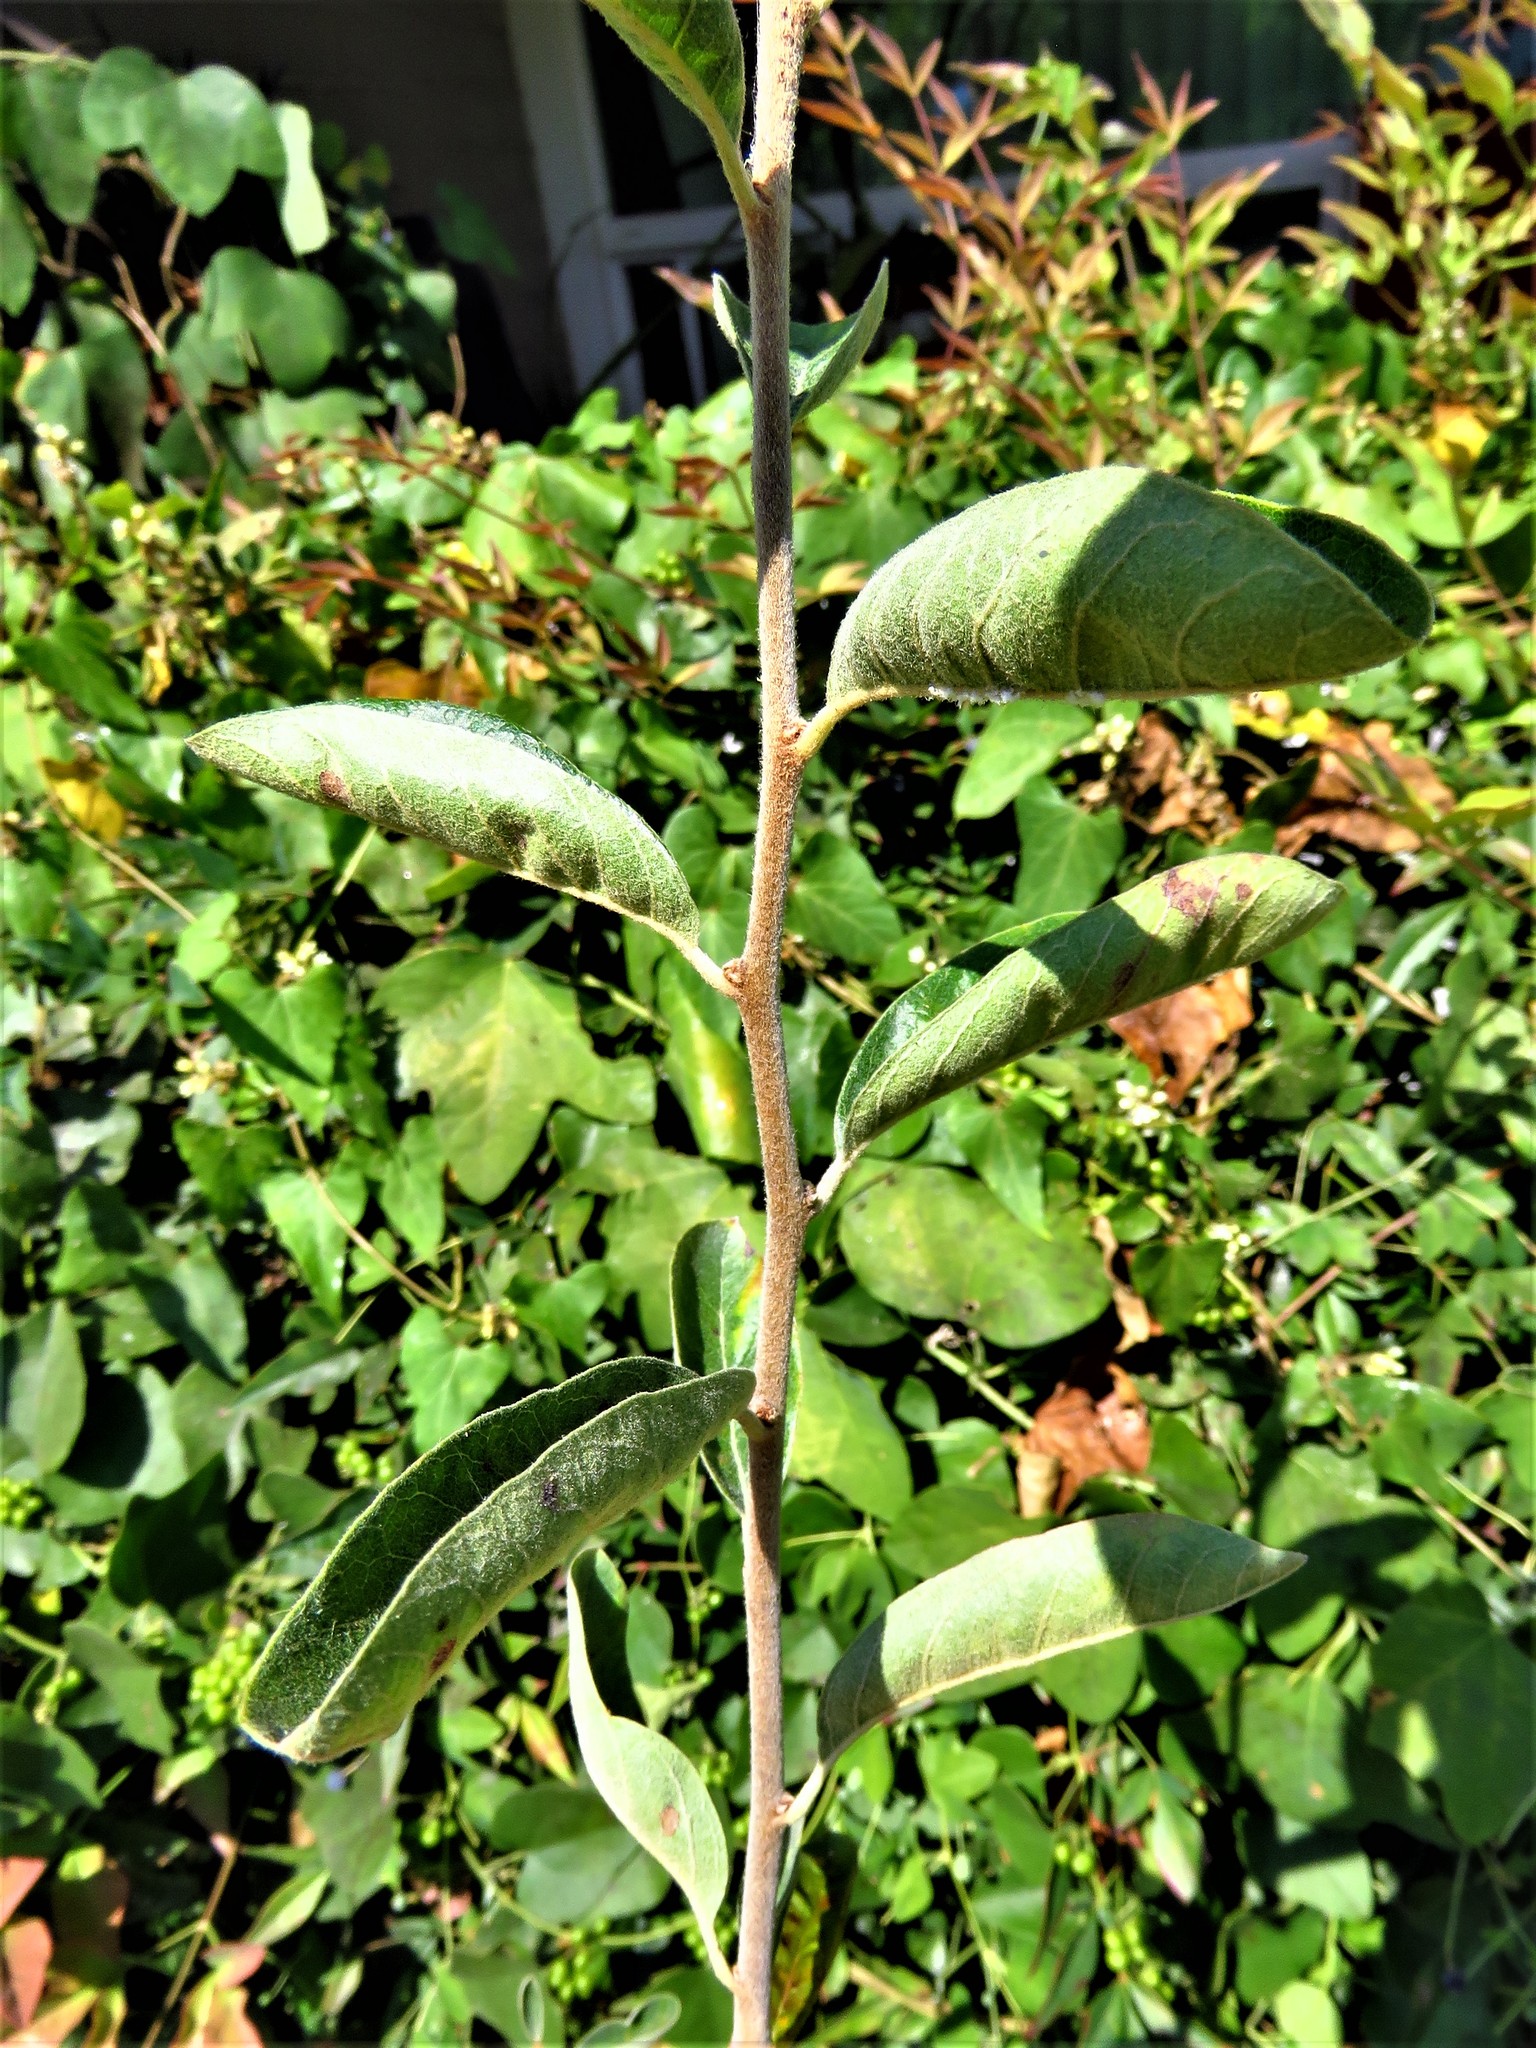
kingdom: Plantae
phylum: Tracheophyta
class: Magnoliopsida
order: Ericales
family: Sapotaceae
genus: Sideroxylon
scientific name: Sideroxylon lanuginosum
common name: Chittamwood
